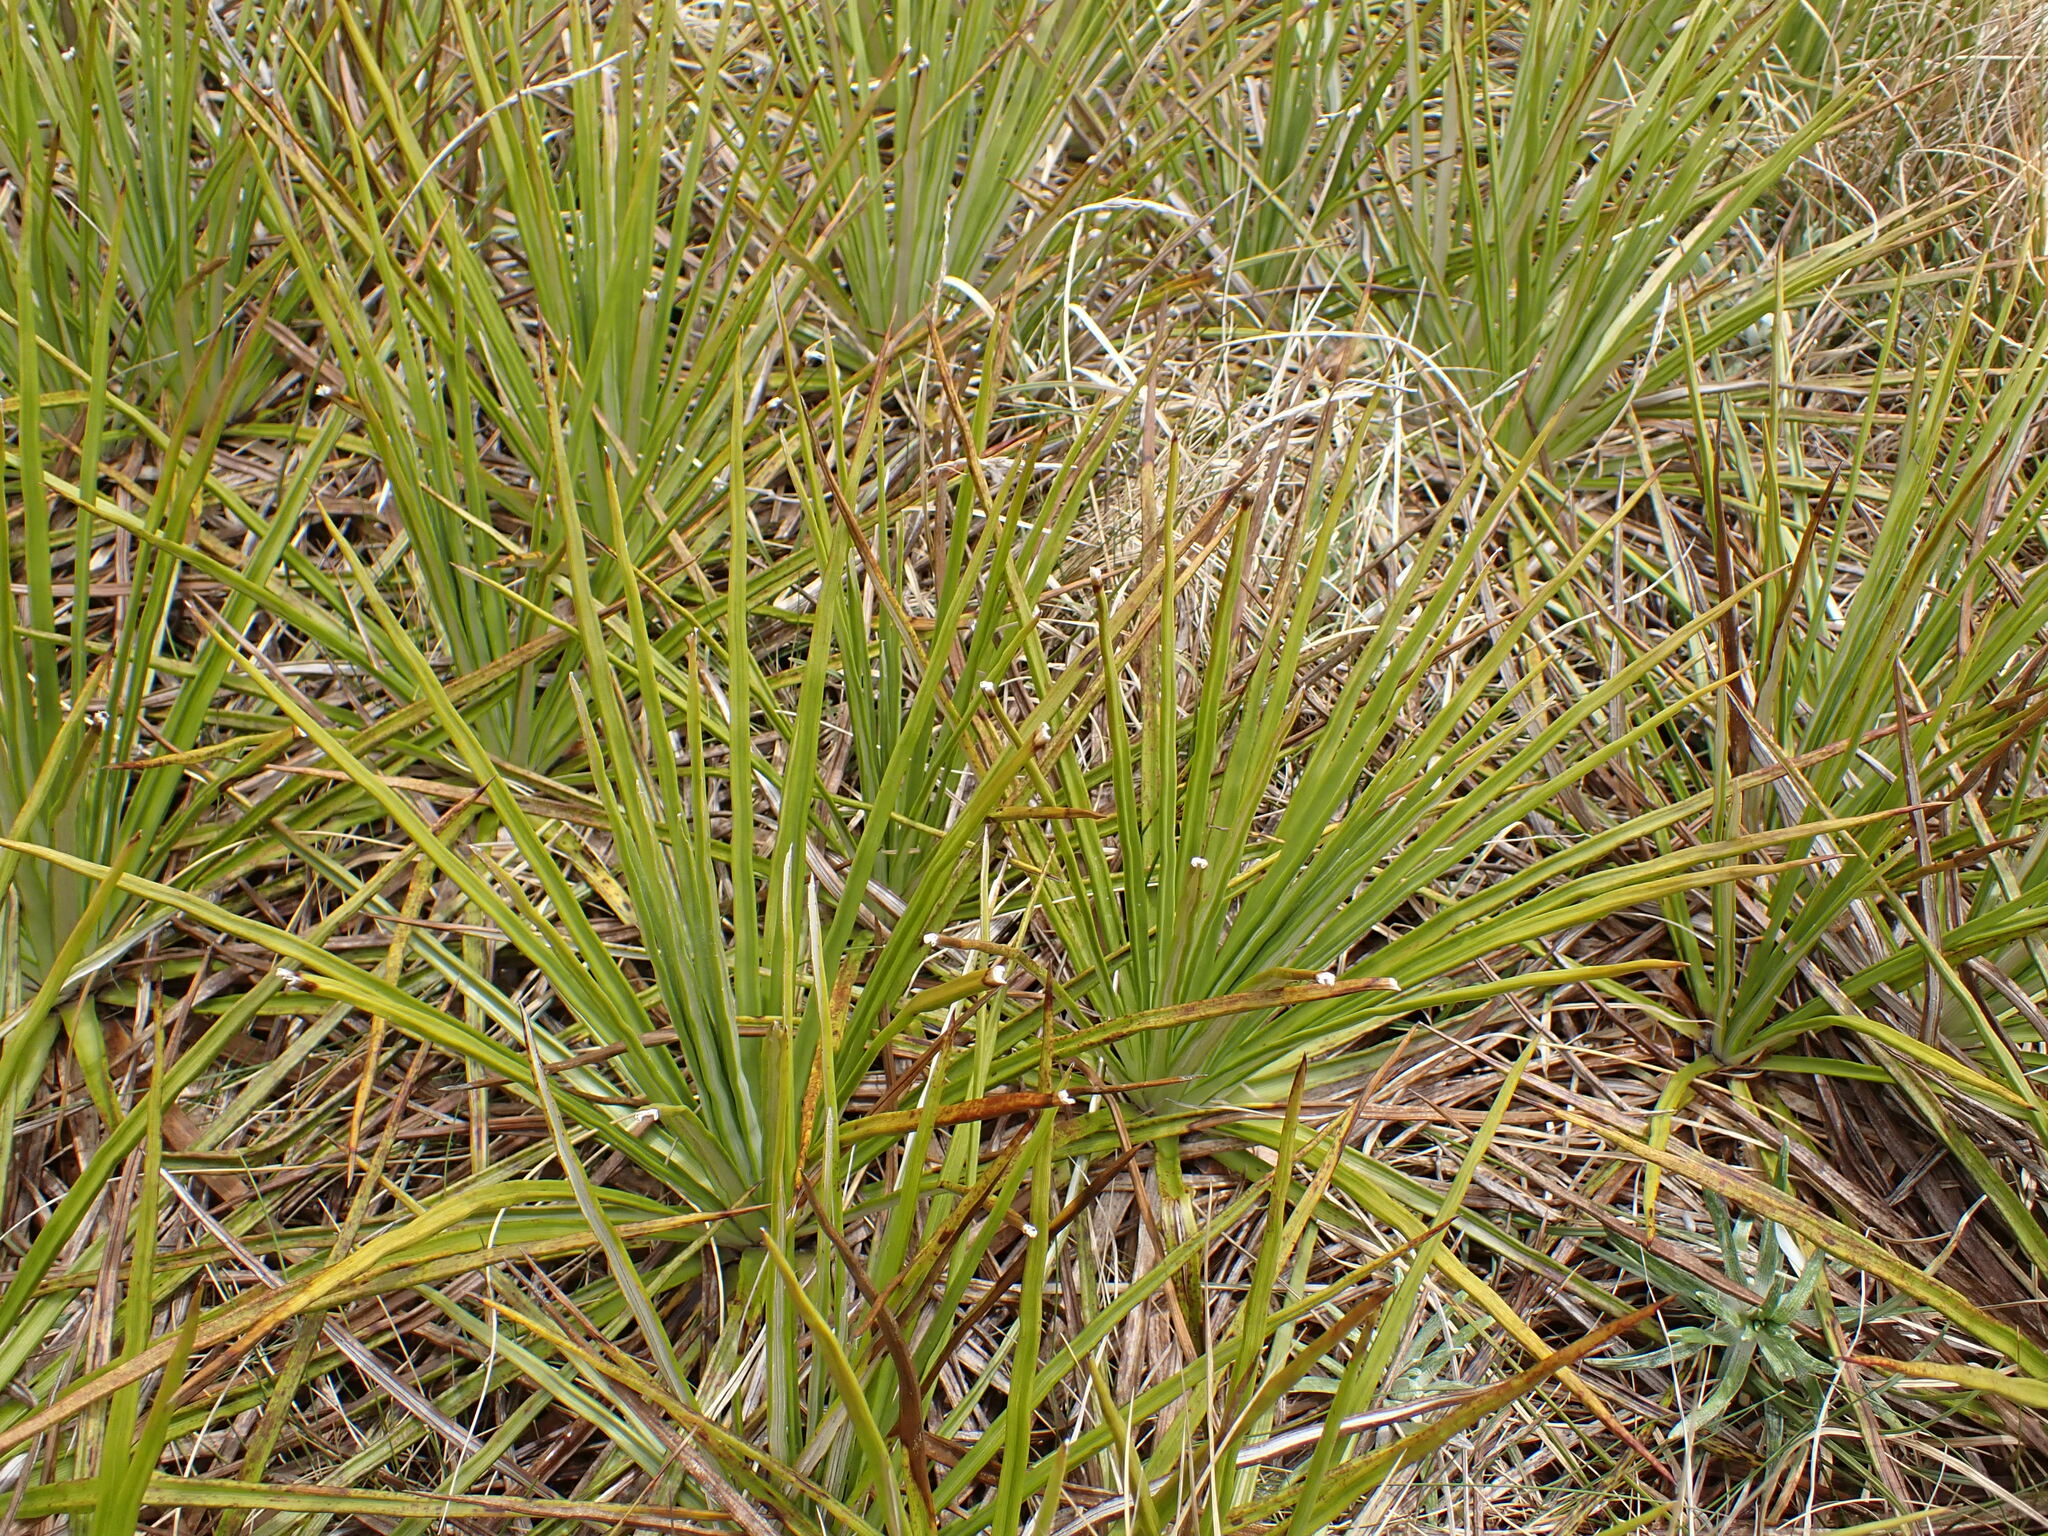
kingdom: Plantae
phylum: Tracheophyta
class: Magnoliopsida
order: Asterales
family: Asteraceae
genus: Celmisia
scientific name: Celmisia petriei
